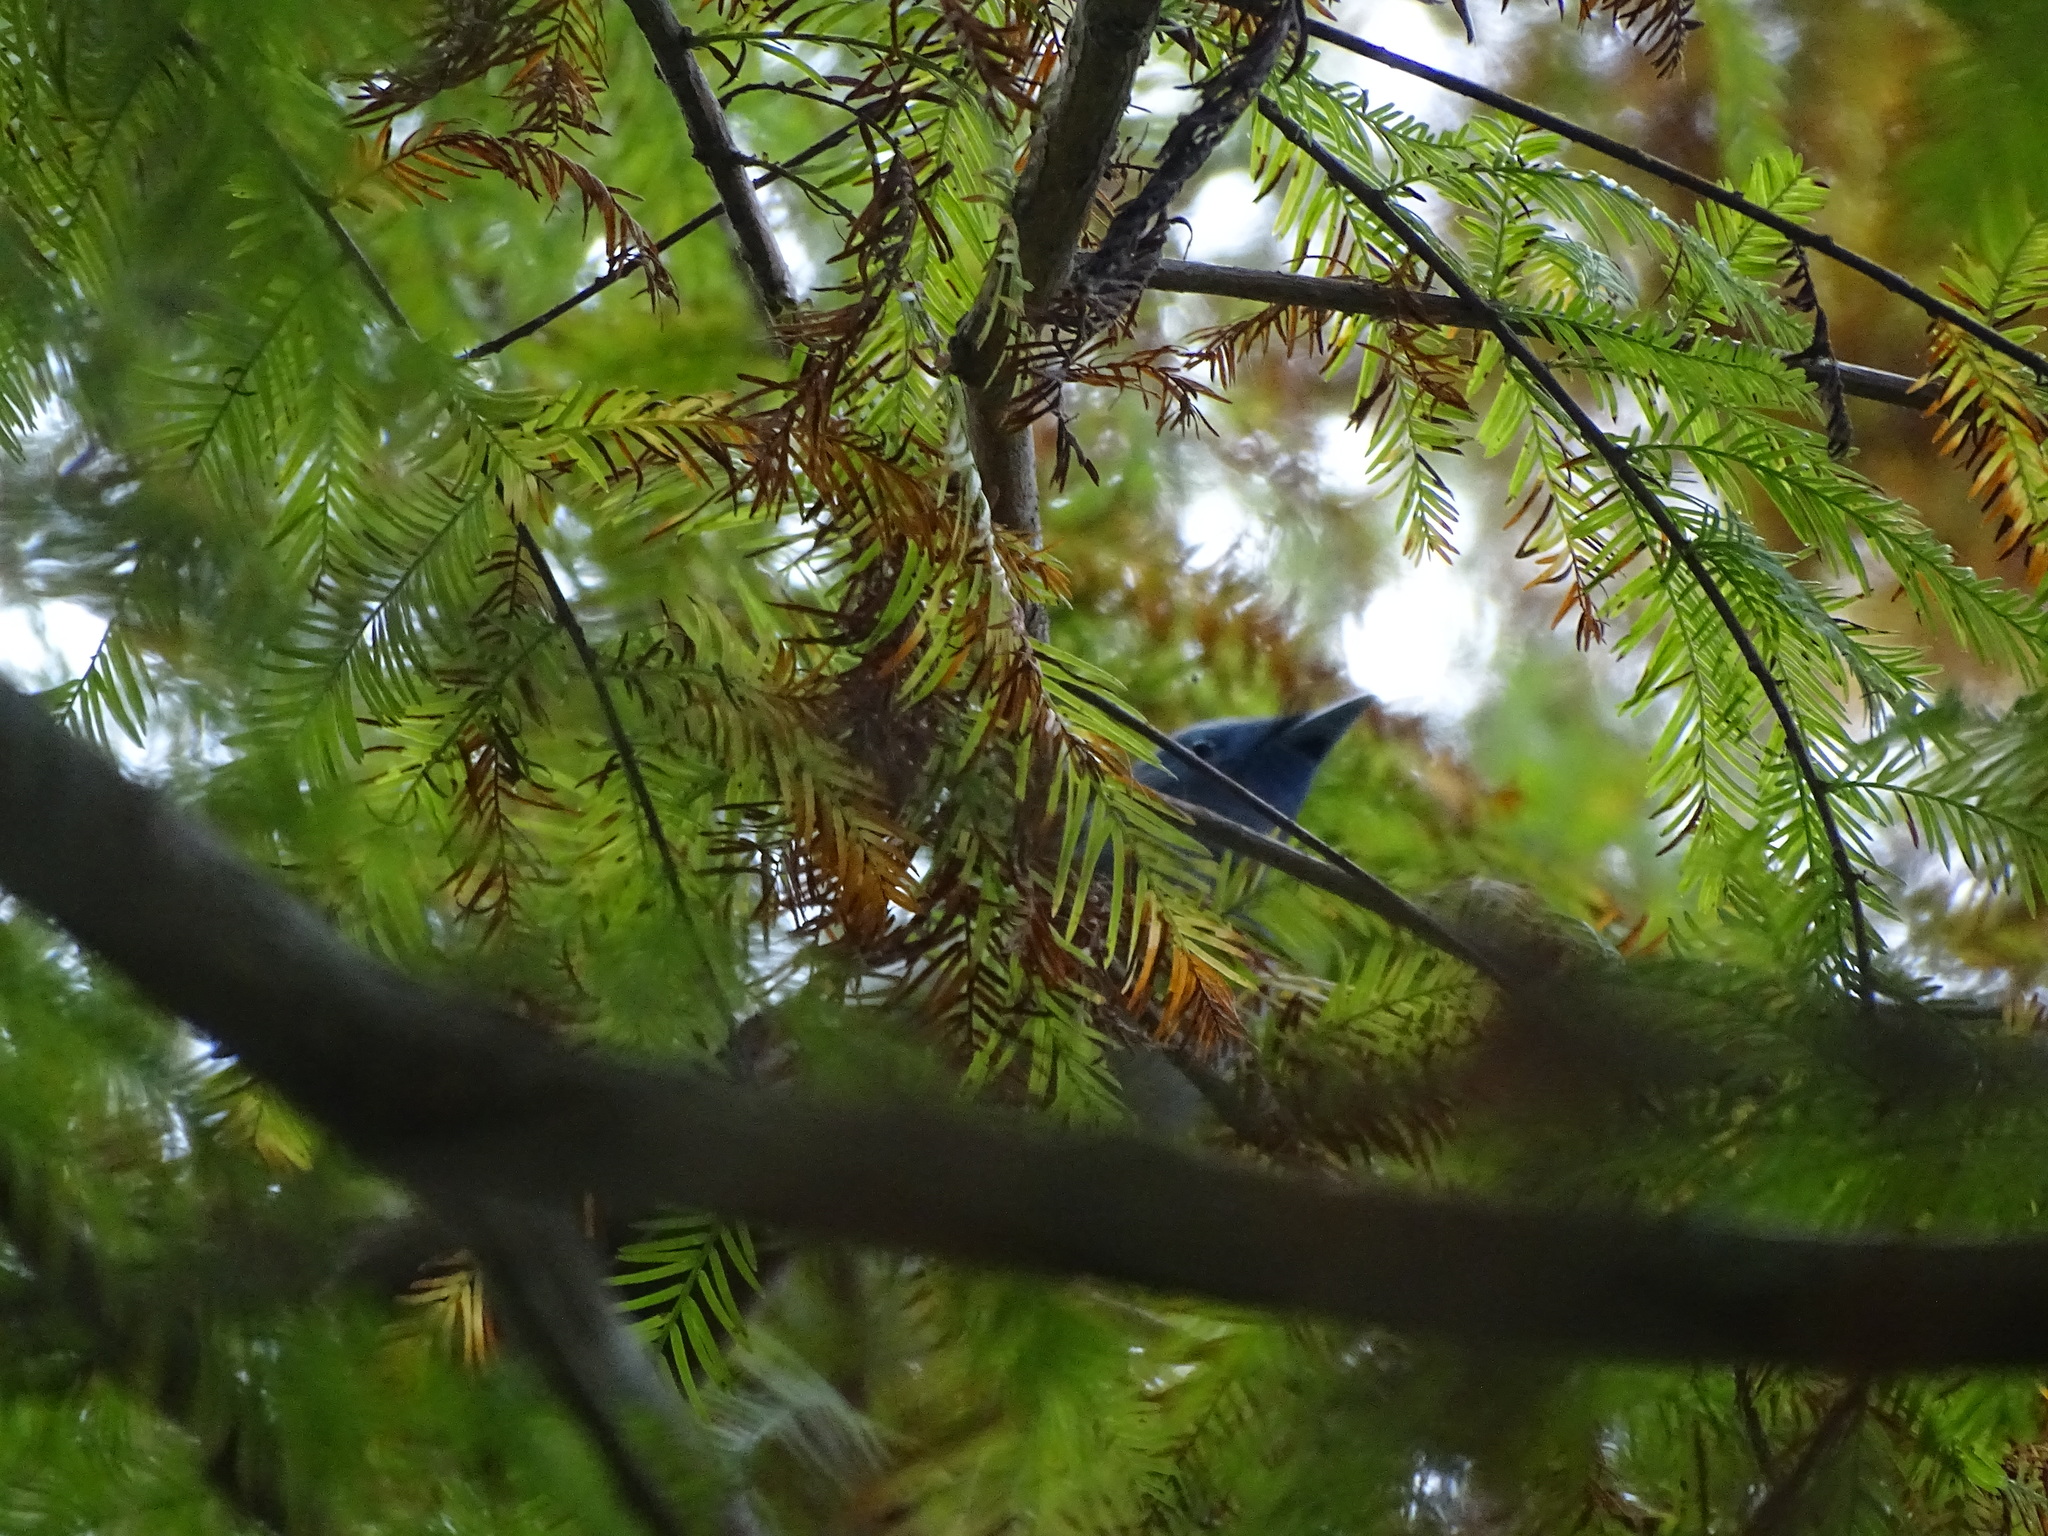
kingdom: Animalia
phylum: Chordata
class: Aves
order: Passeriformes
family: Monarchidae
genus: Hypothymis
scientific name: Hypothymis azurea
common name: Black-naped monarch
